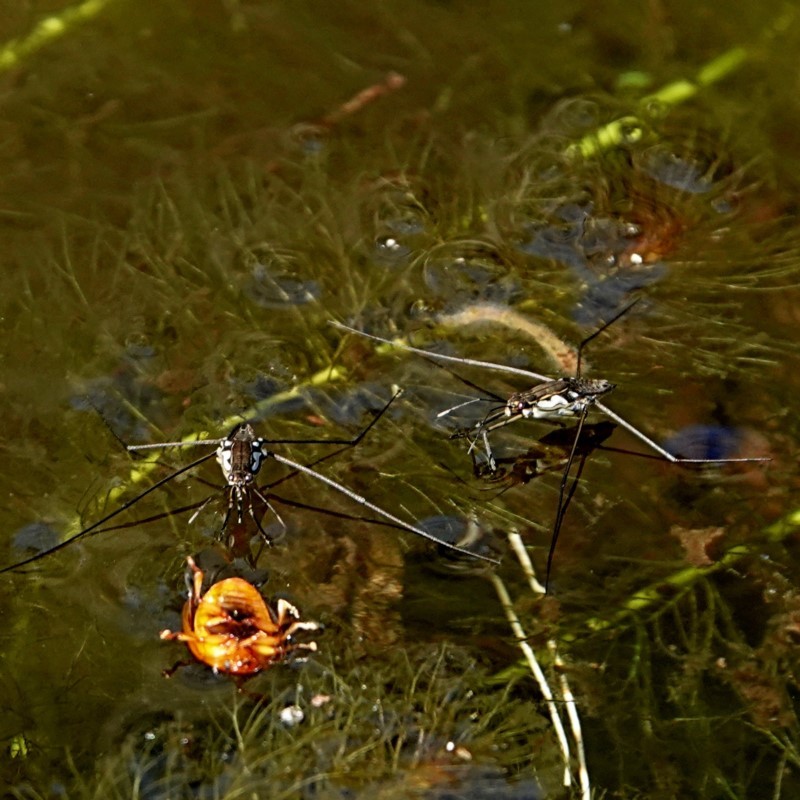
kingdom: Animalia
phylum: Arthropoda
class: Insecta
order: Hemiptera
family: Gerridae
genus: Tenagogerris
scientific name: Tenagogerris euphrosyne
